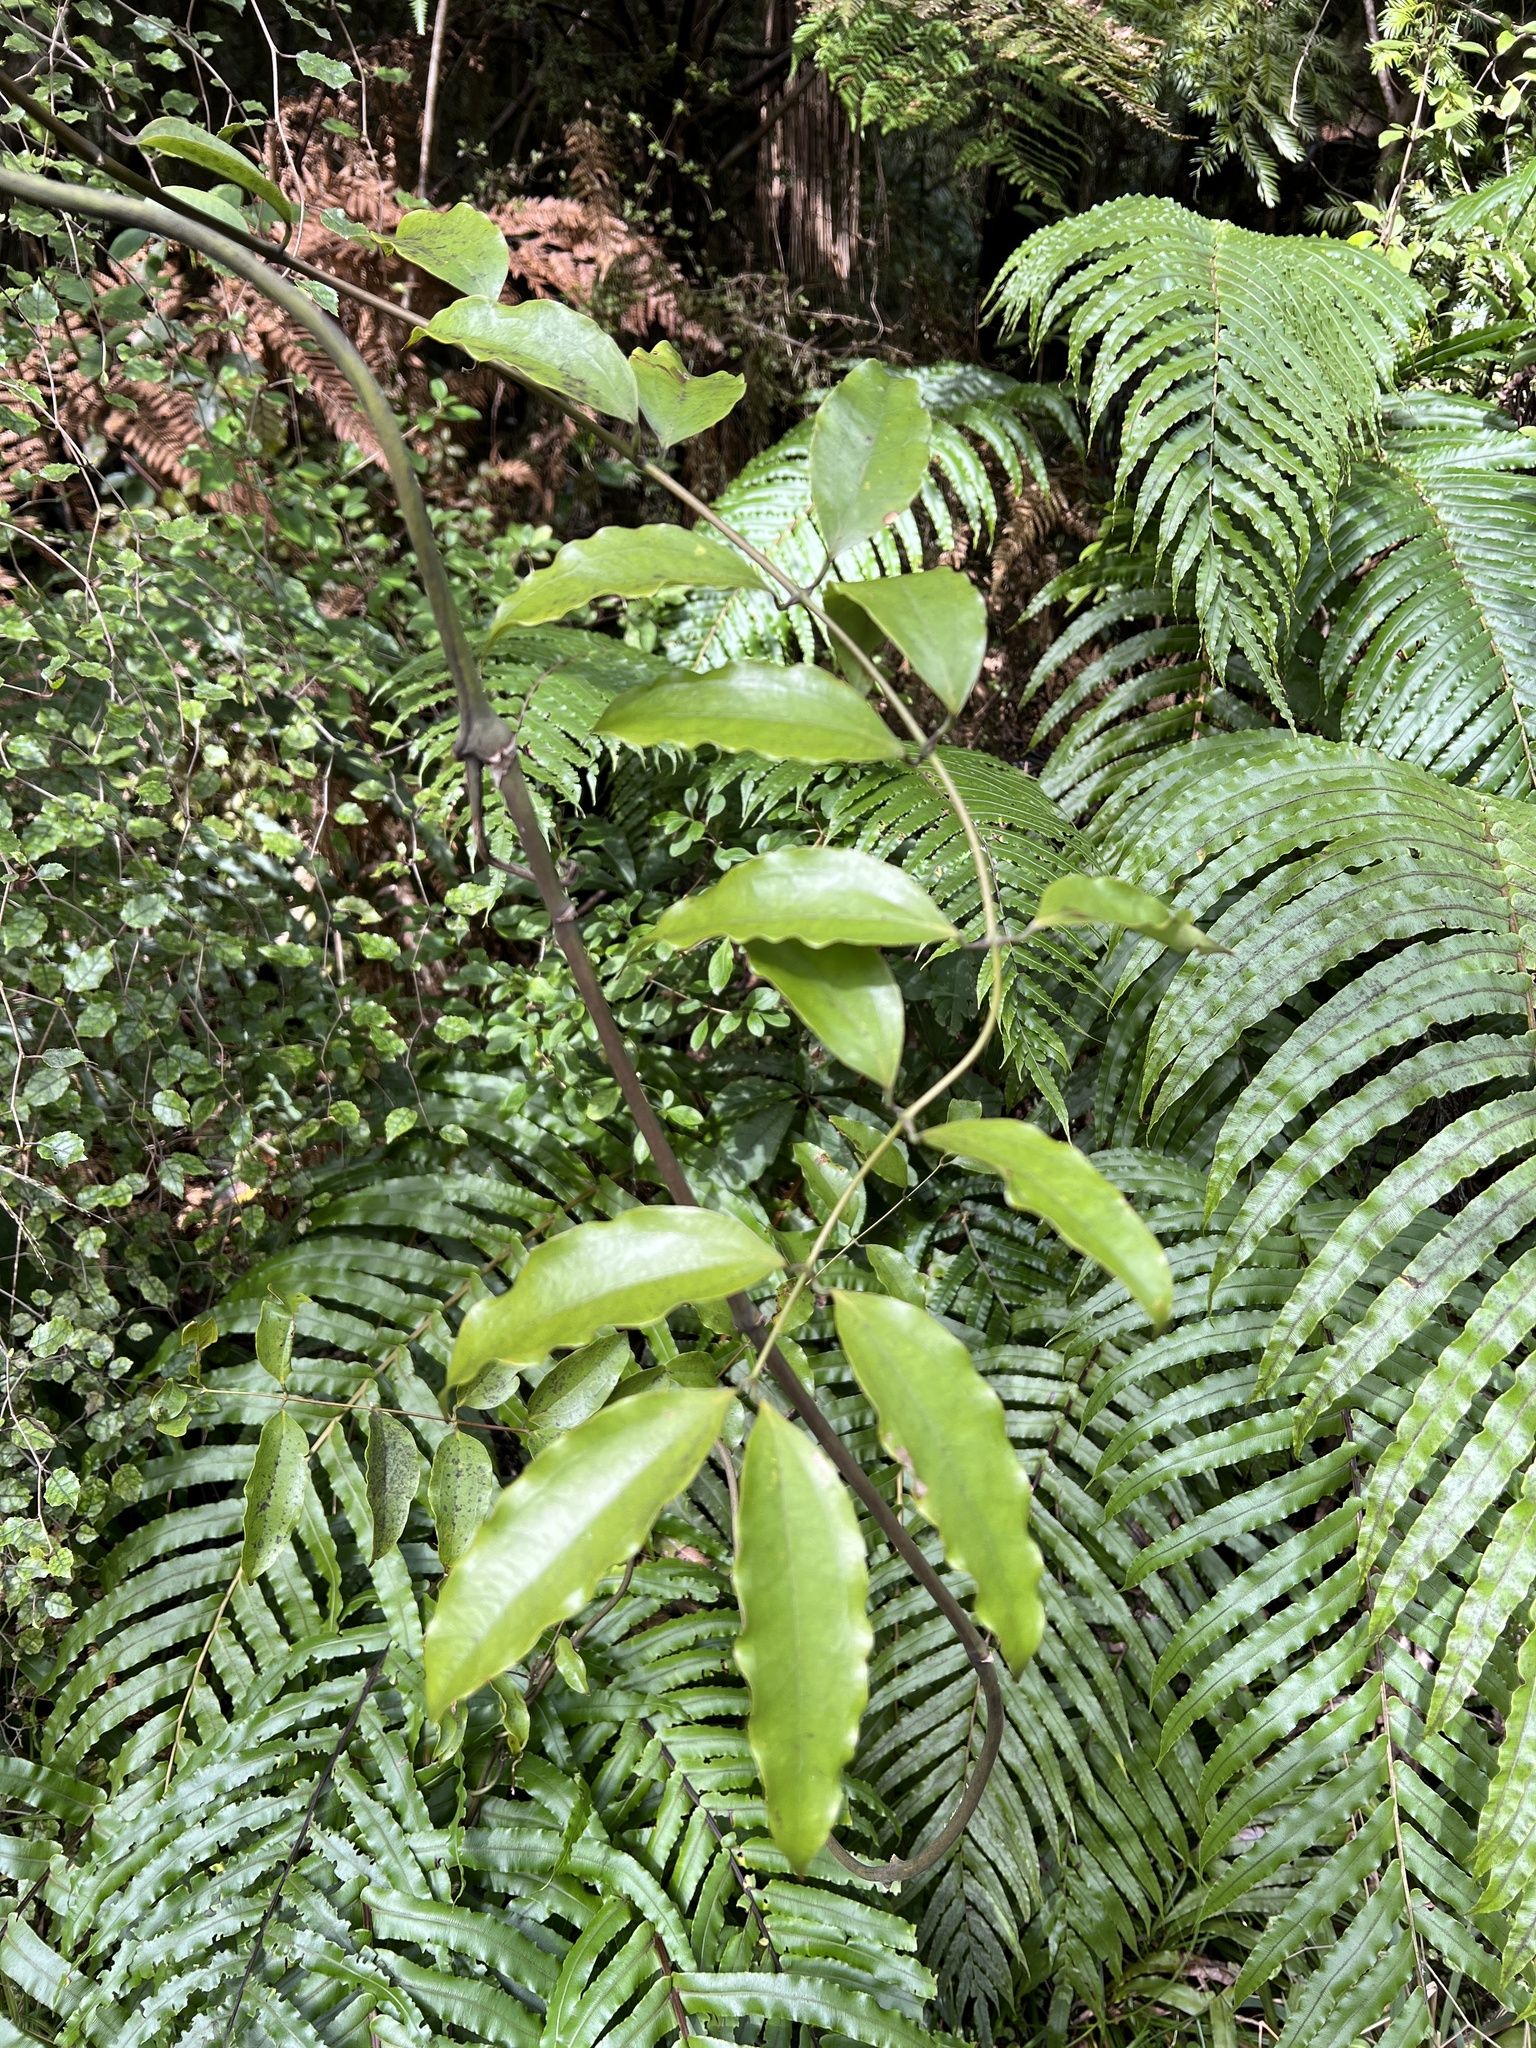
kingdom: Plantae
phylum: Tracheophyta
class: Liliopsida
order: Liliales
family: Ripogonaceae
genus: Ripogonum
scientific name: Ripogonum scandens
